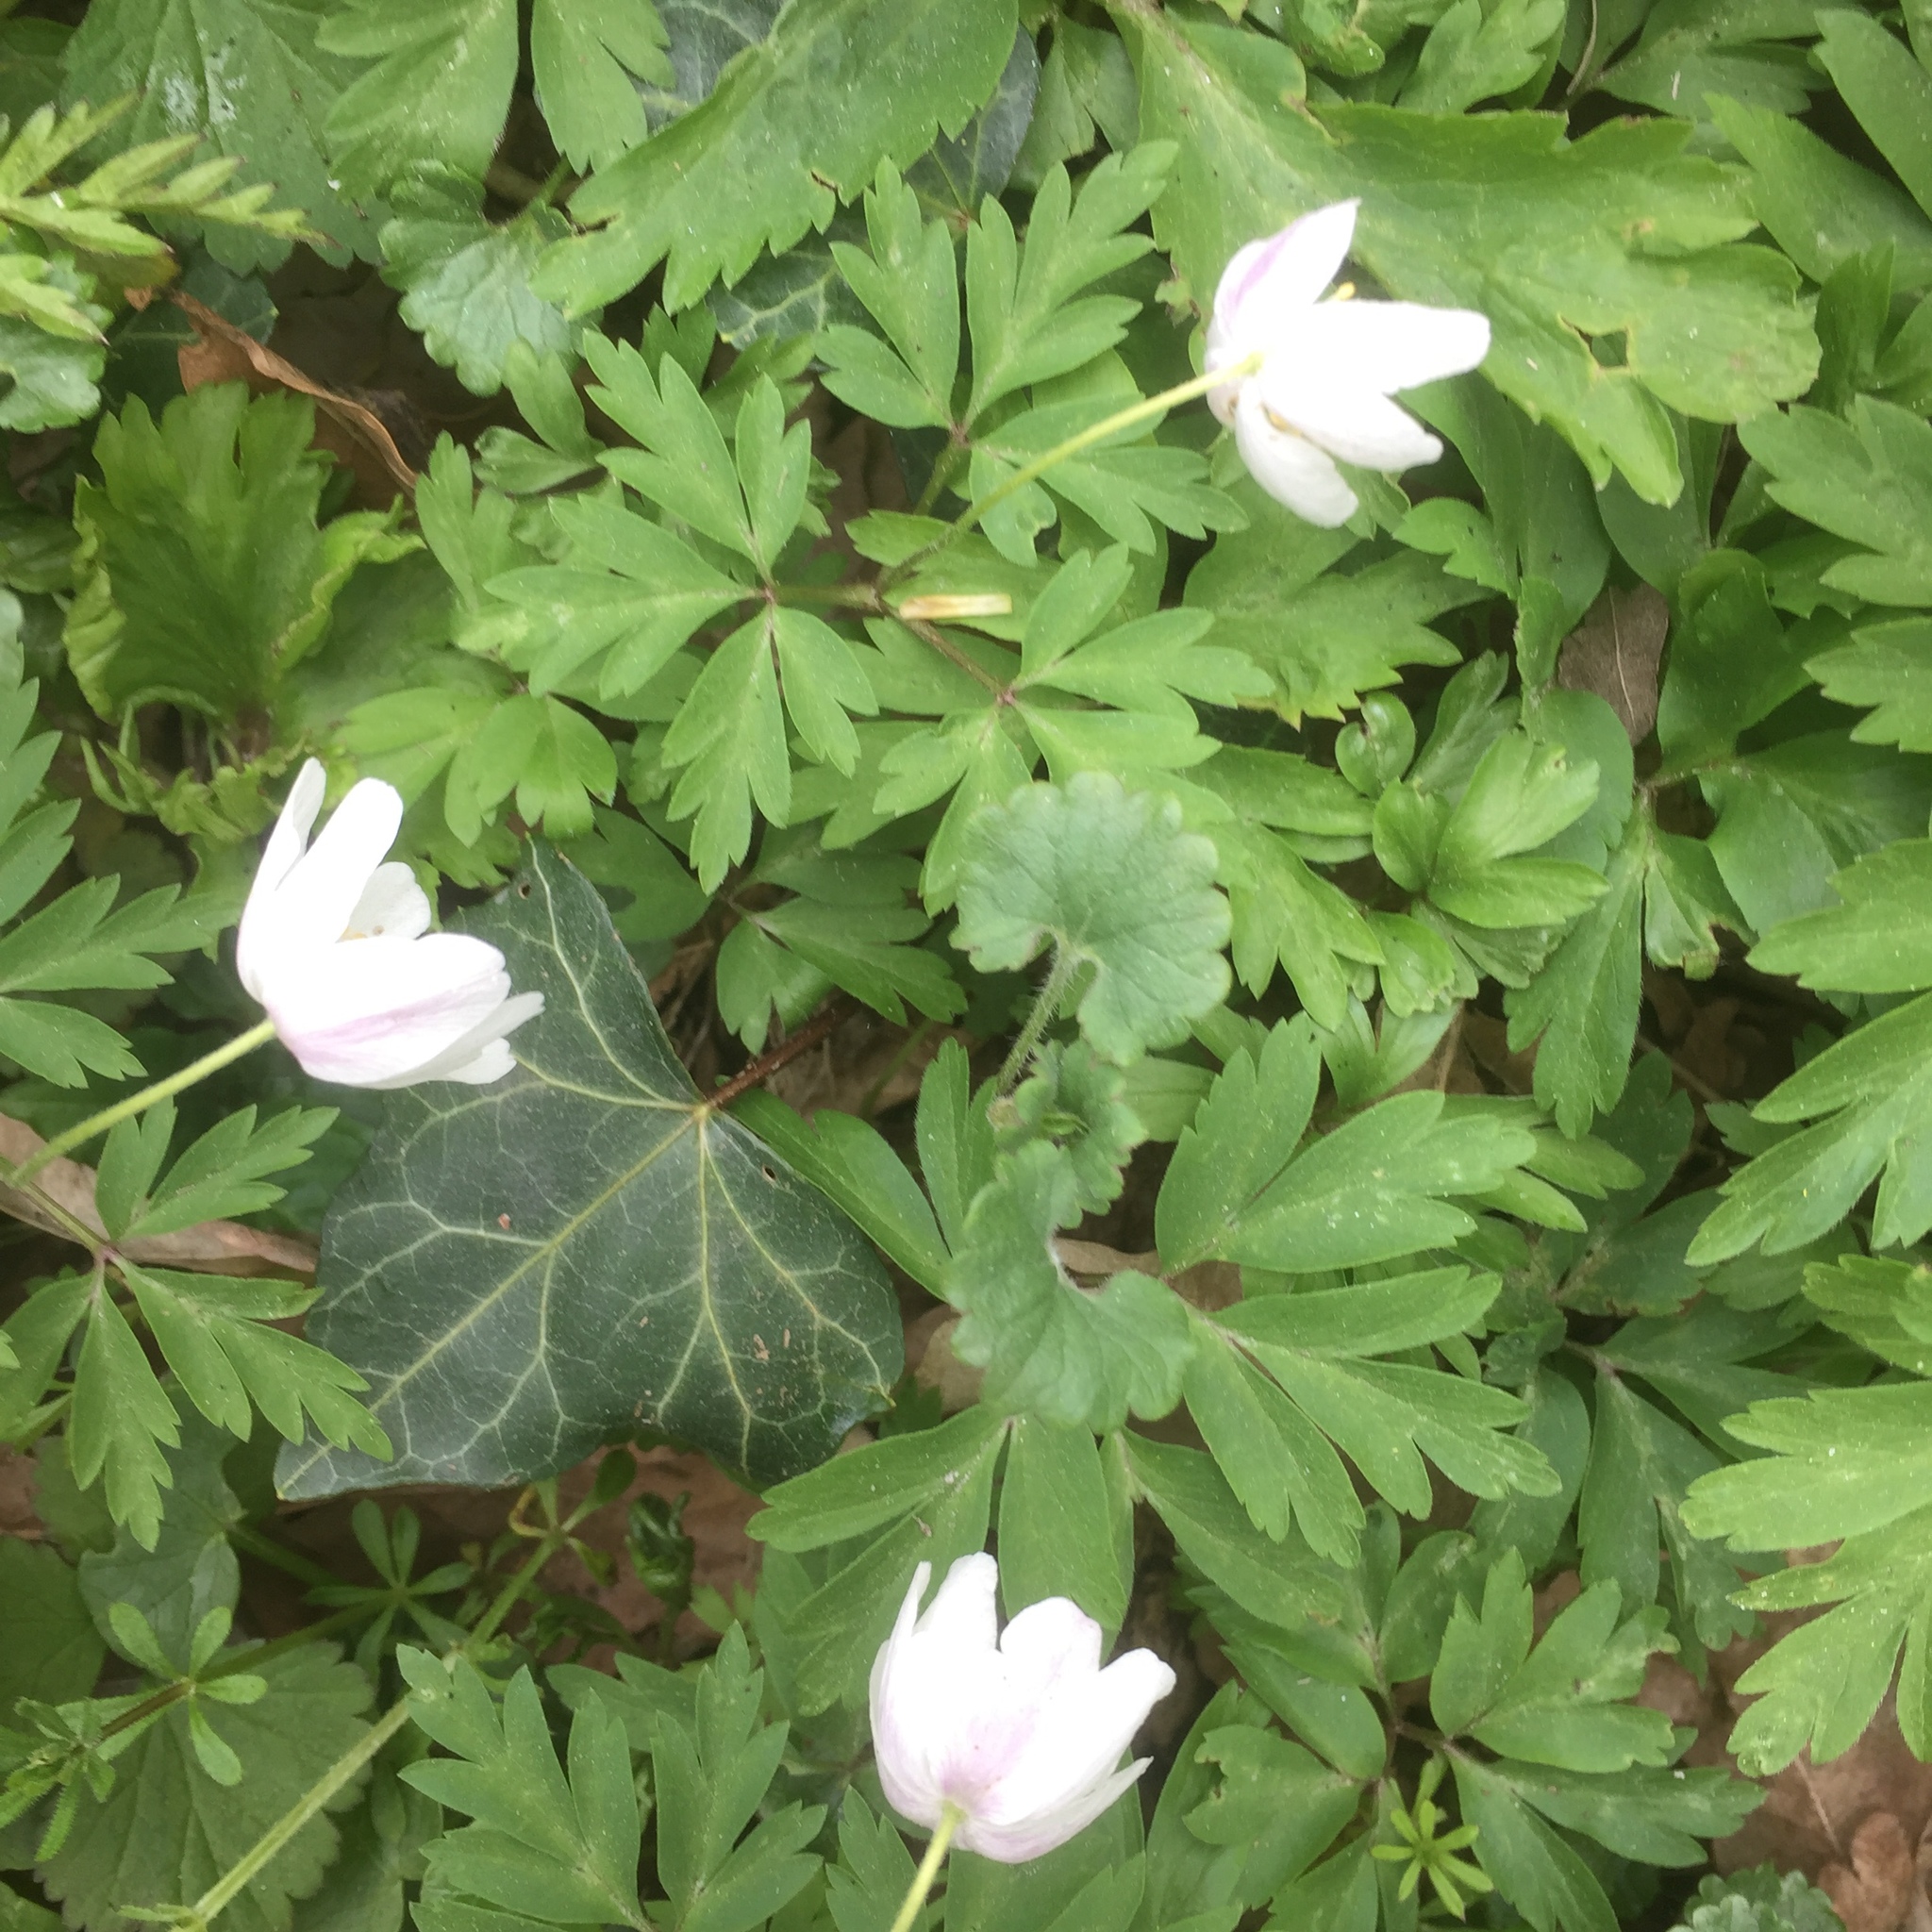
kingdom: Plantae
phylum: Tracheophyta
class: Magnoliopsida
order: Ranunculales
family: Ranunculaceae
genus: Anemone
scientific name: Anemone nemorosa
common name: Wood anemone
